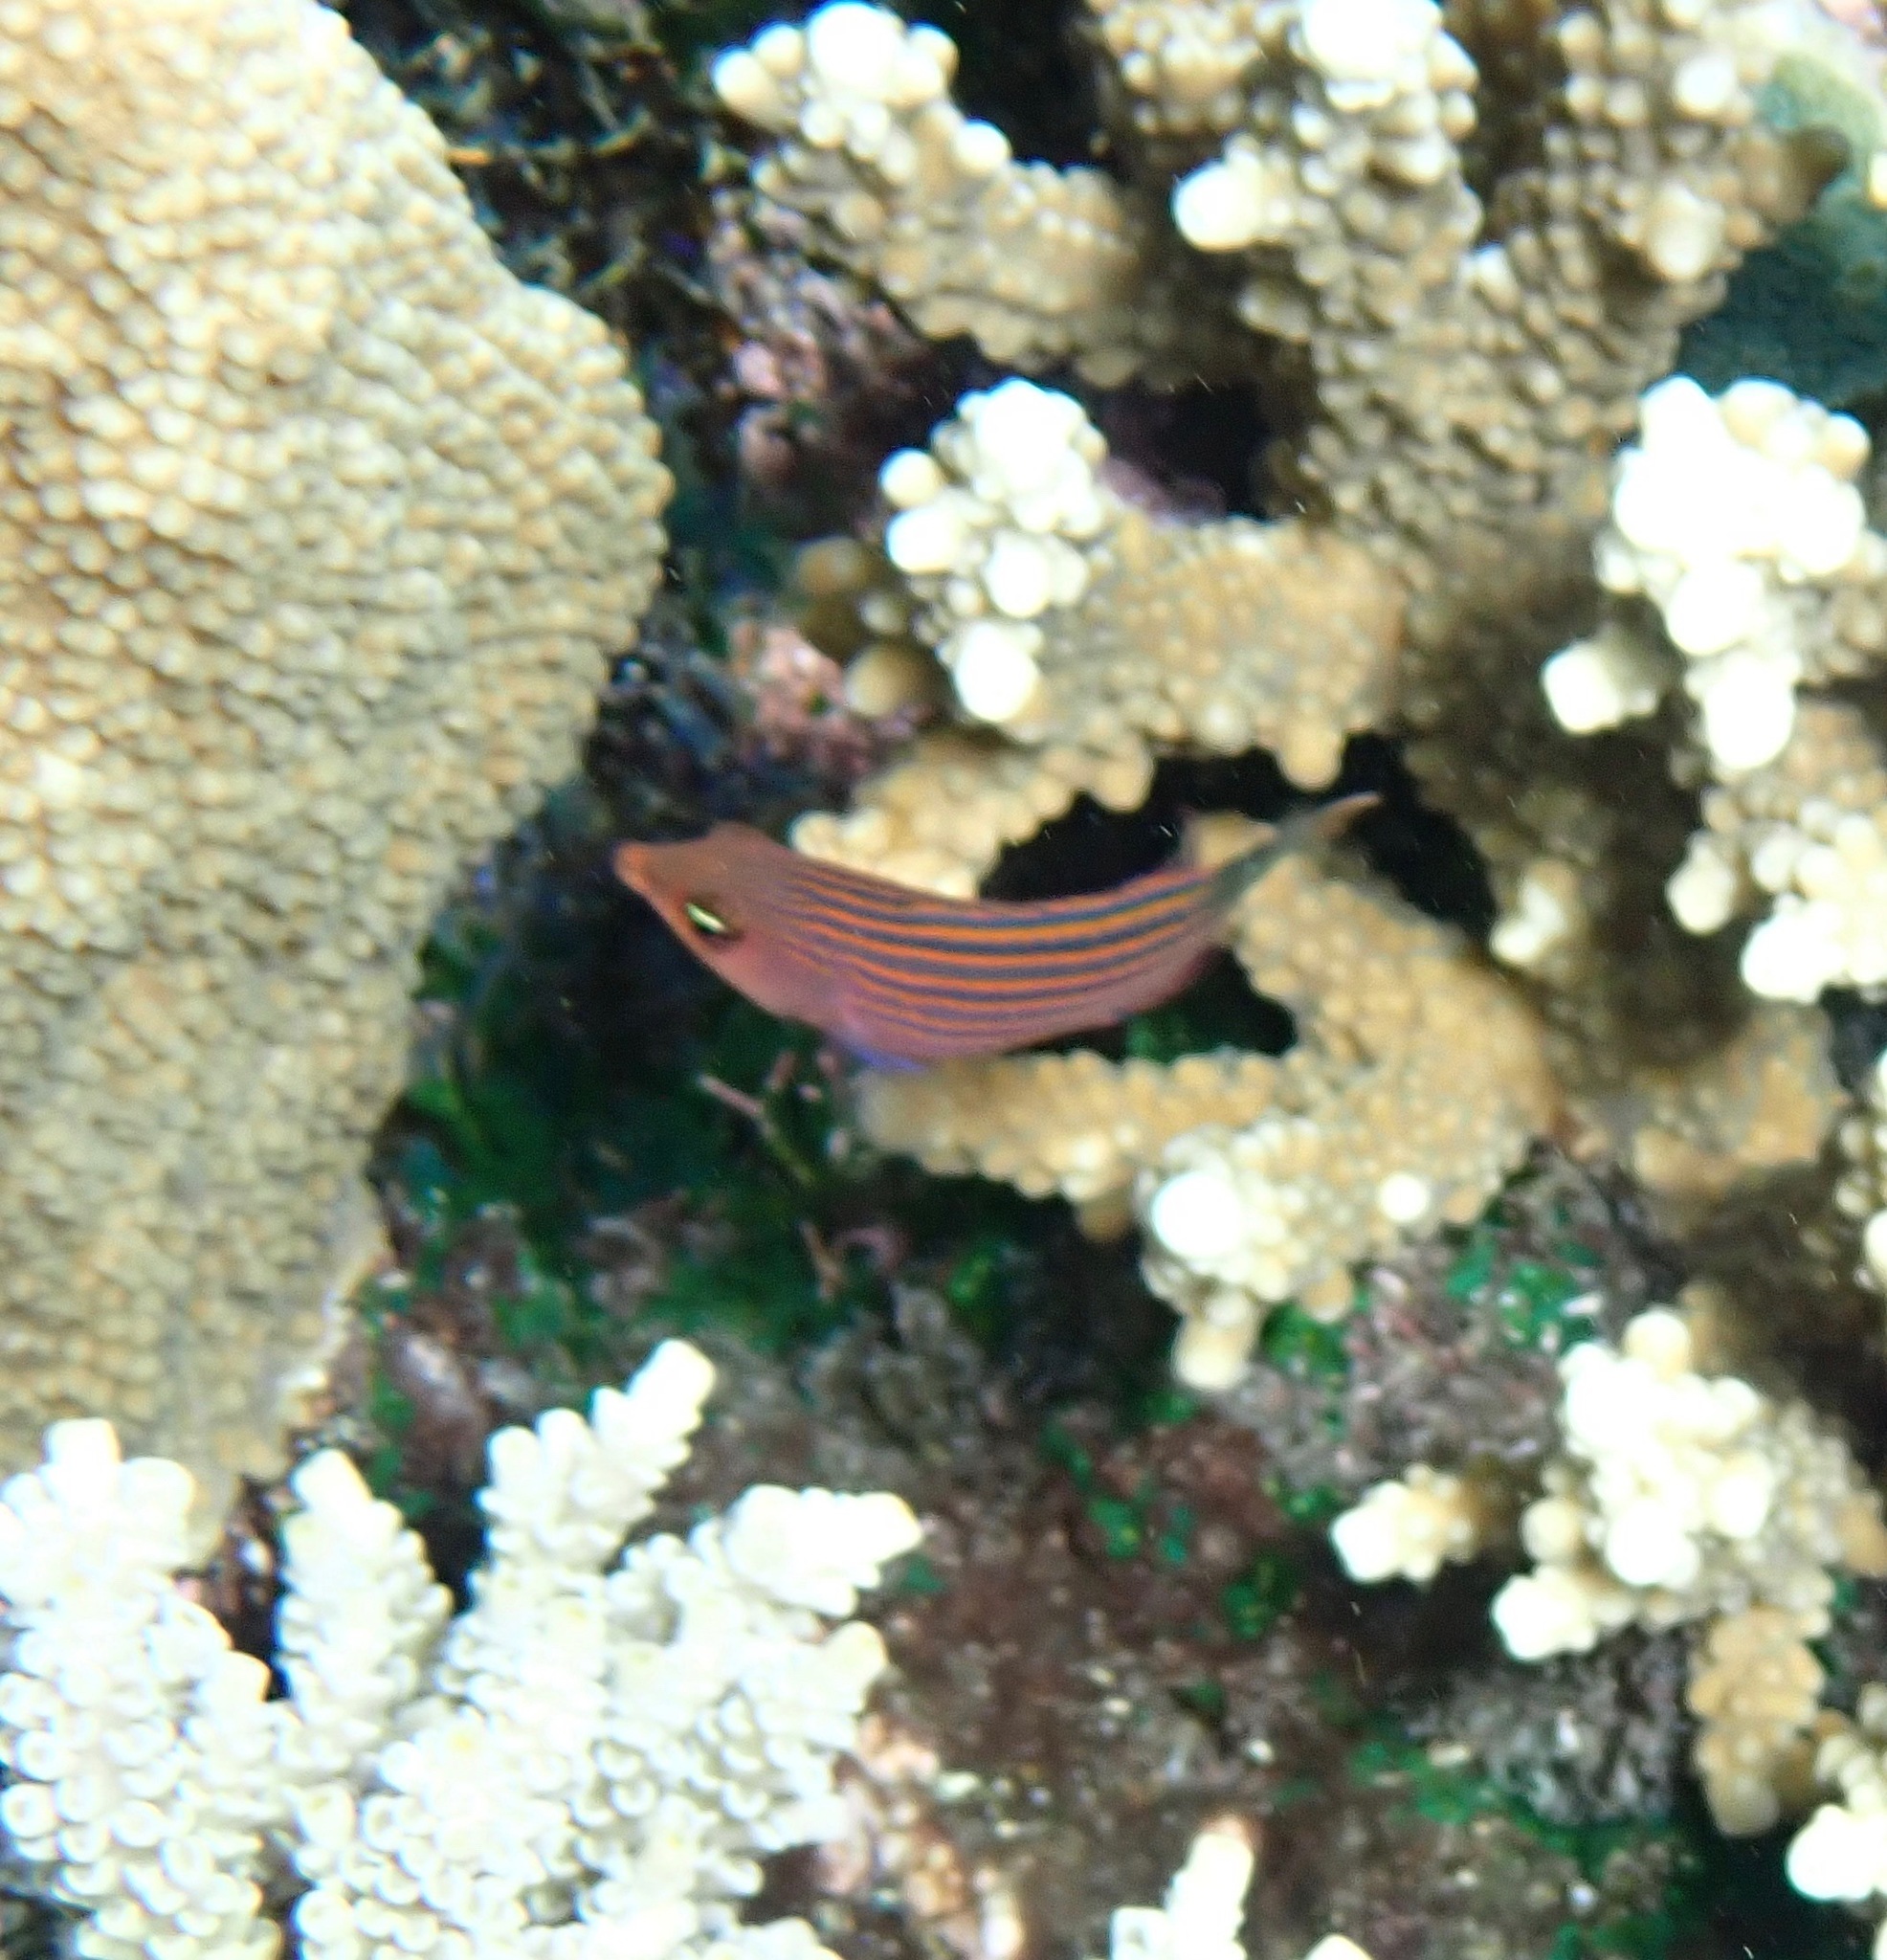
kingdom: Animalia
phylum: Chordata
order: Perciformes
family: Labridae
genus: Pseudocheilinus
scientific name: Pseudocheilinus hexataenia
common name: Sixline wrasse
